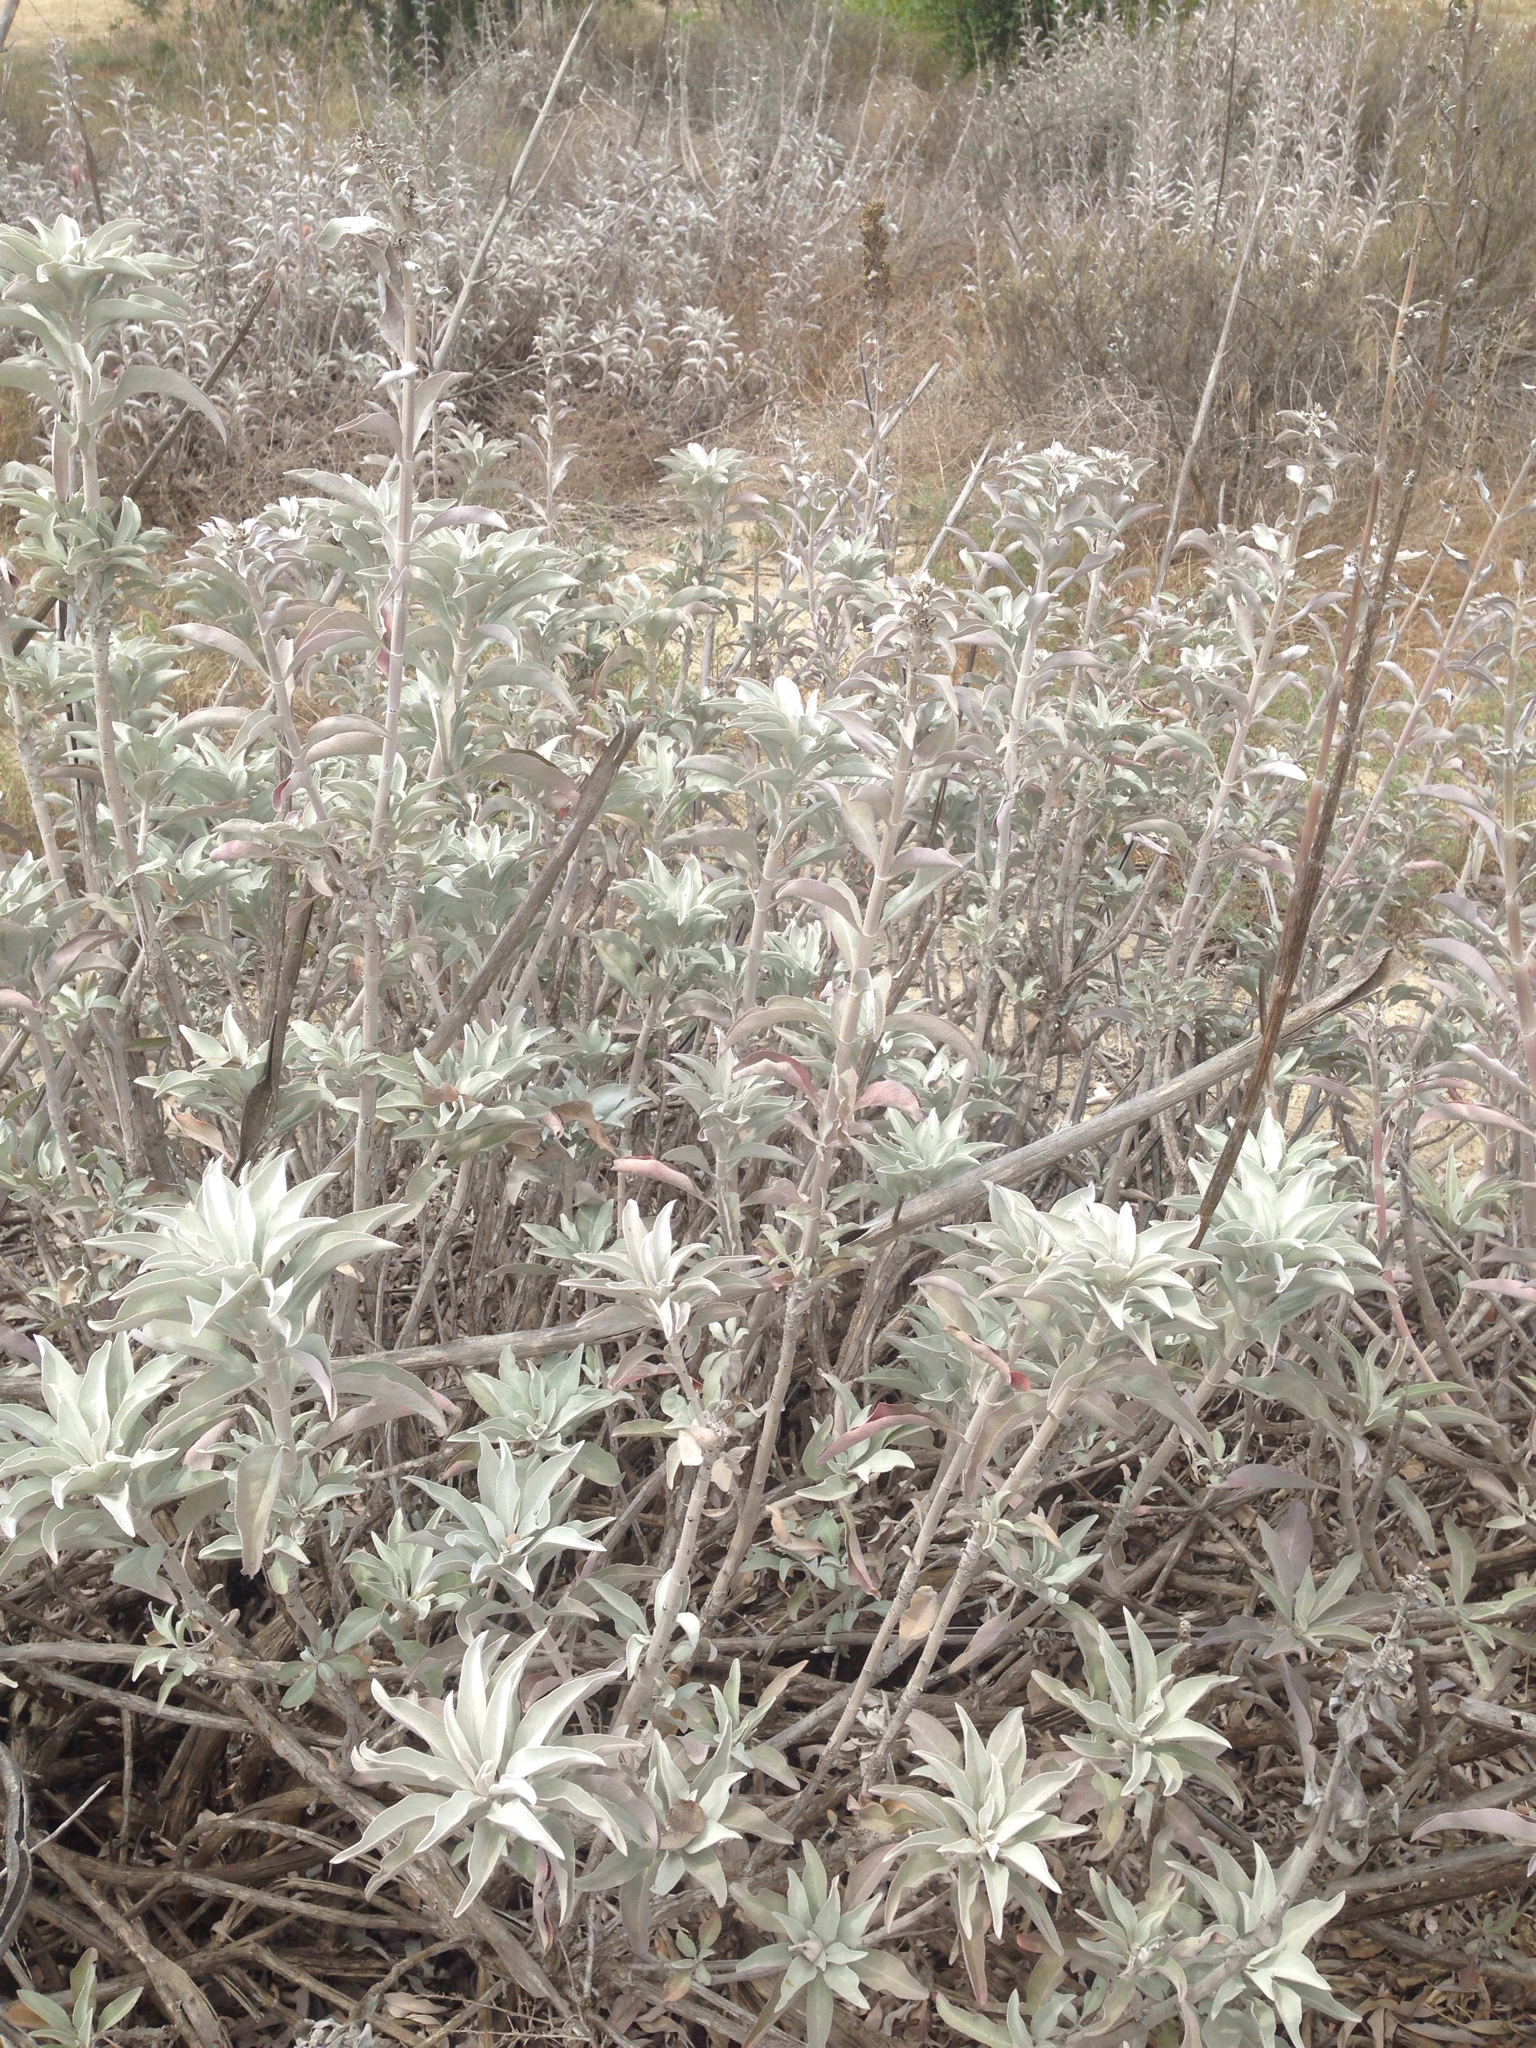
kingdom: Plantae
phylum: Tracheophyta
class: Magnoliopsida
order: Lamiales
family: Lamiaceae
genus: Salvia
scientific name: Salvia apiana
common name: White sage
